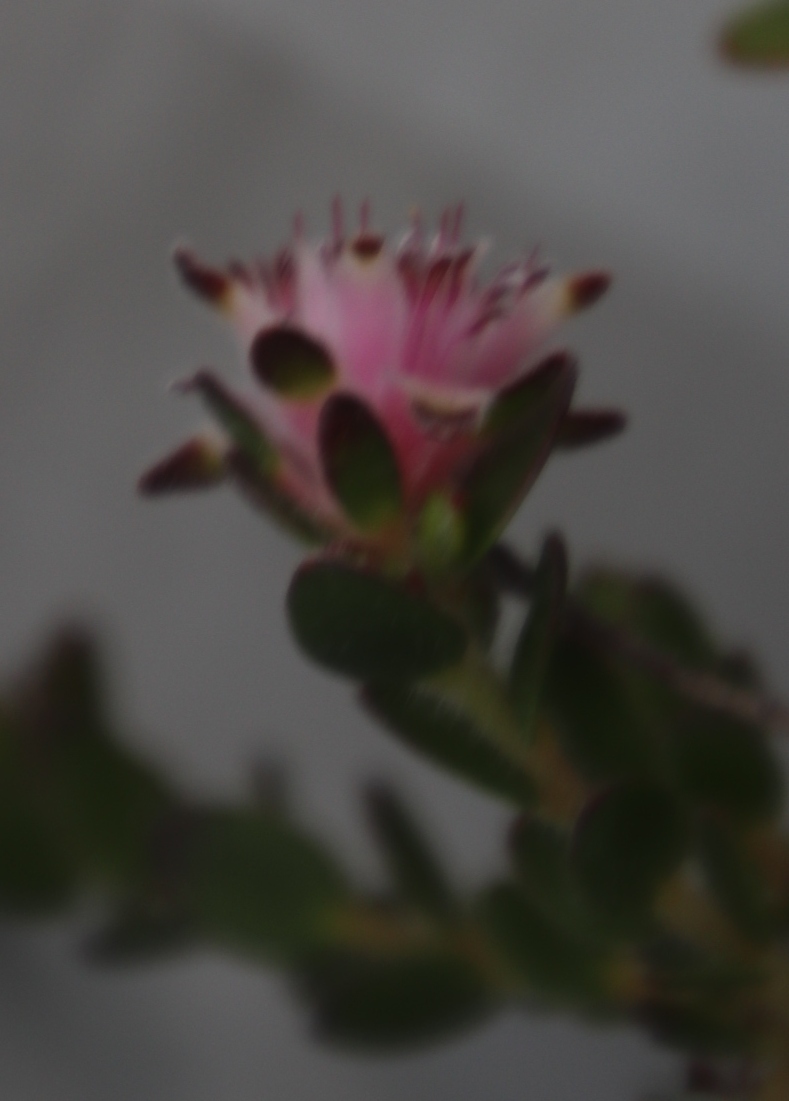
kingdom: Plantae
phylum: Tracheophyta
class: Magnoliopsida
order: Proteales
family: Proteaceae
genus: Diastella
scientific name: Diastella divaricata
